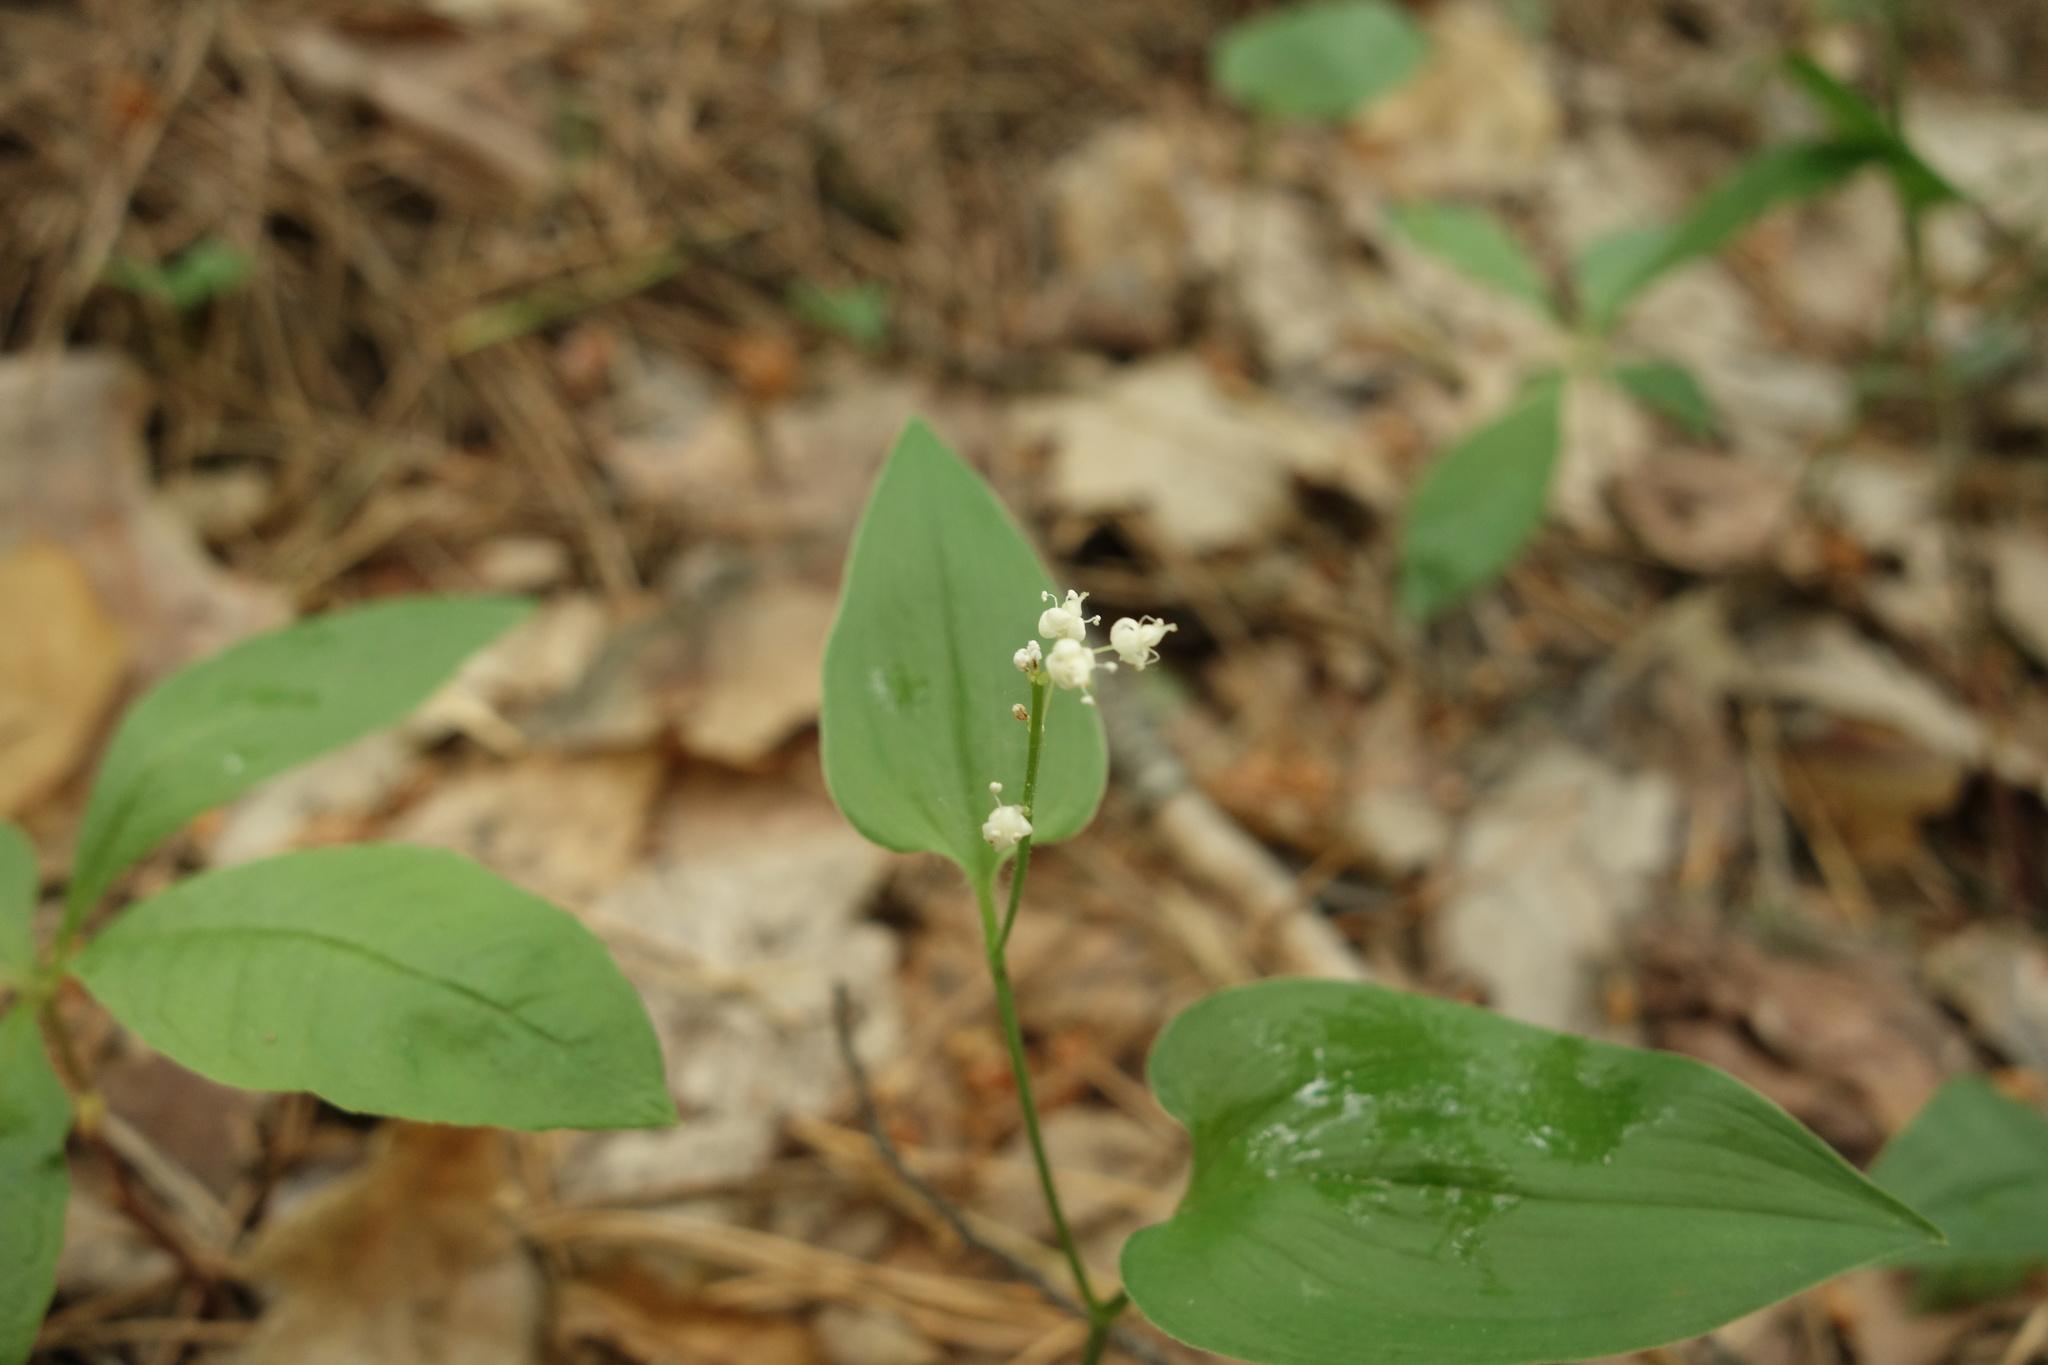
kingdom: Plantae
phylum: Tracheophyta
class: Liliopsida
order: Asparagales
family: Asparagaceae
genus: Maianthemum
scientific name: Maianthemum bifolium
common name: May lily
